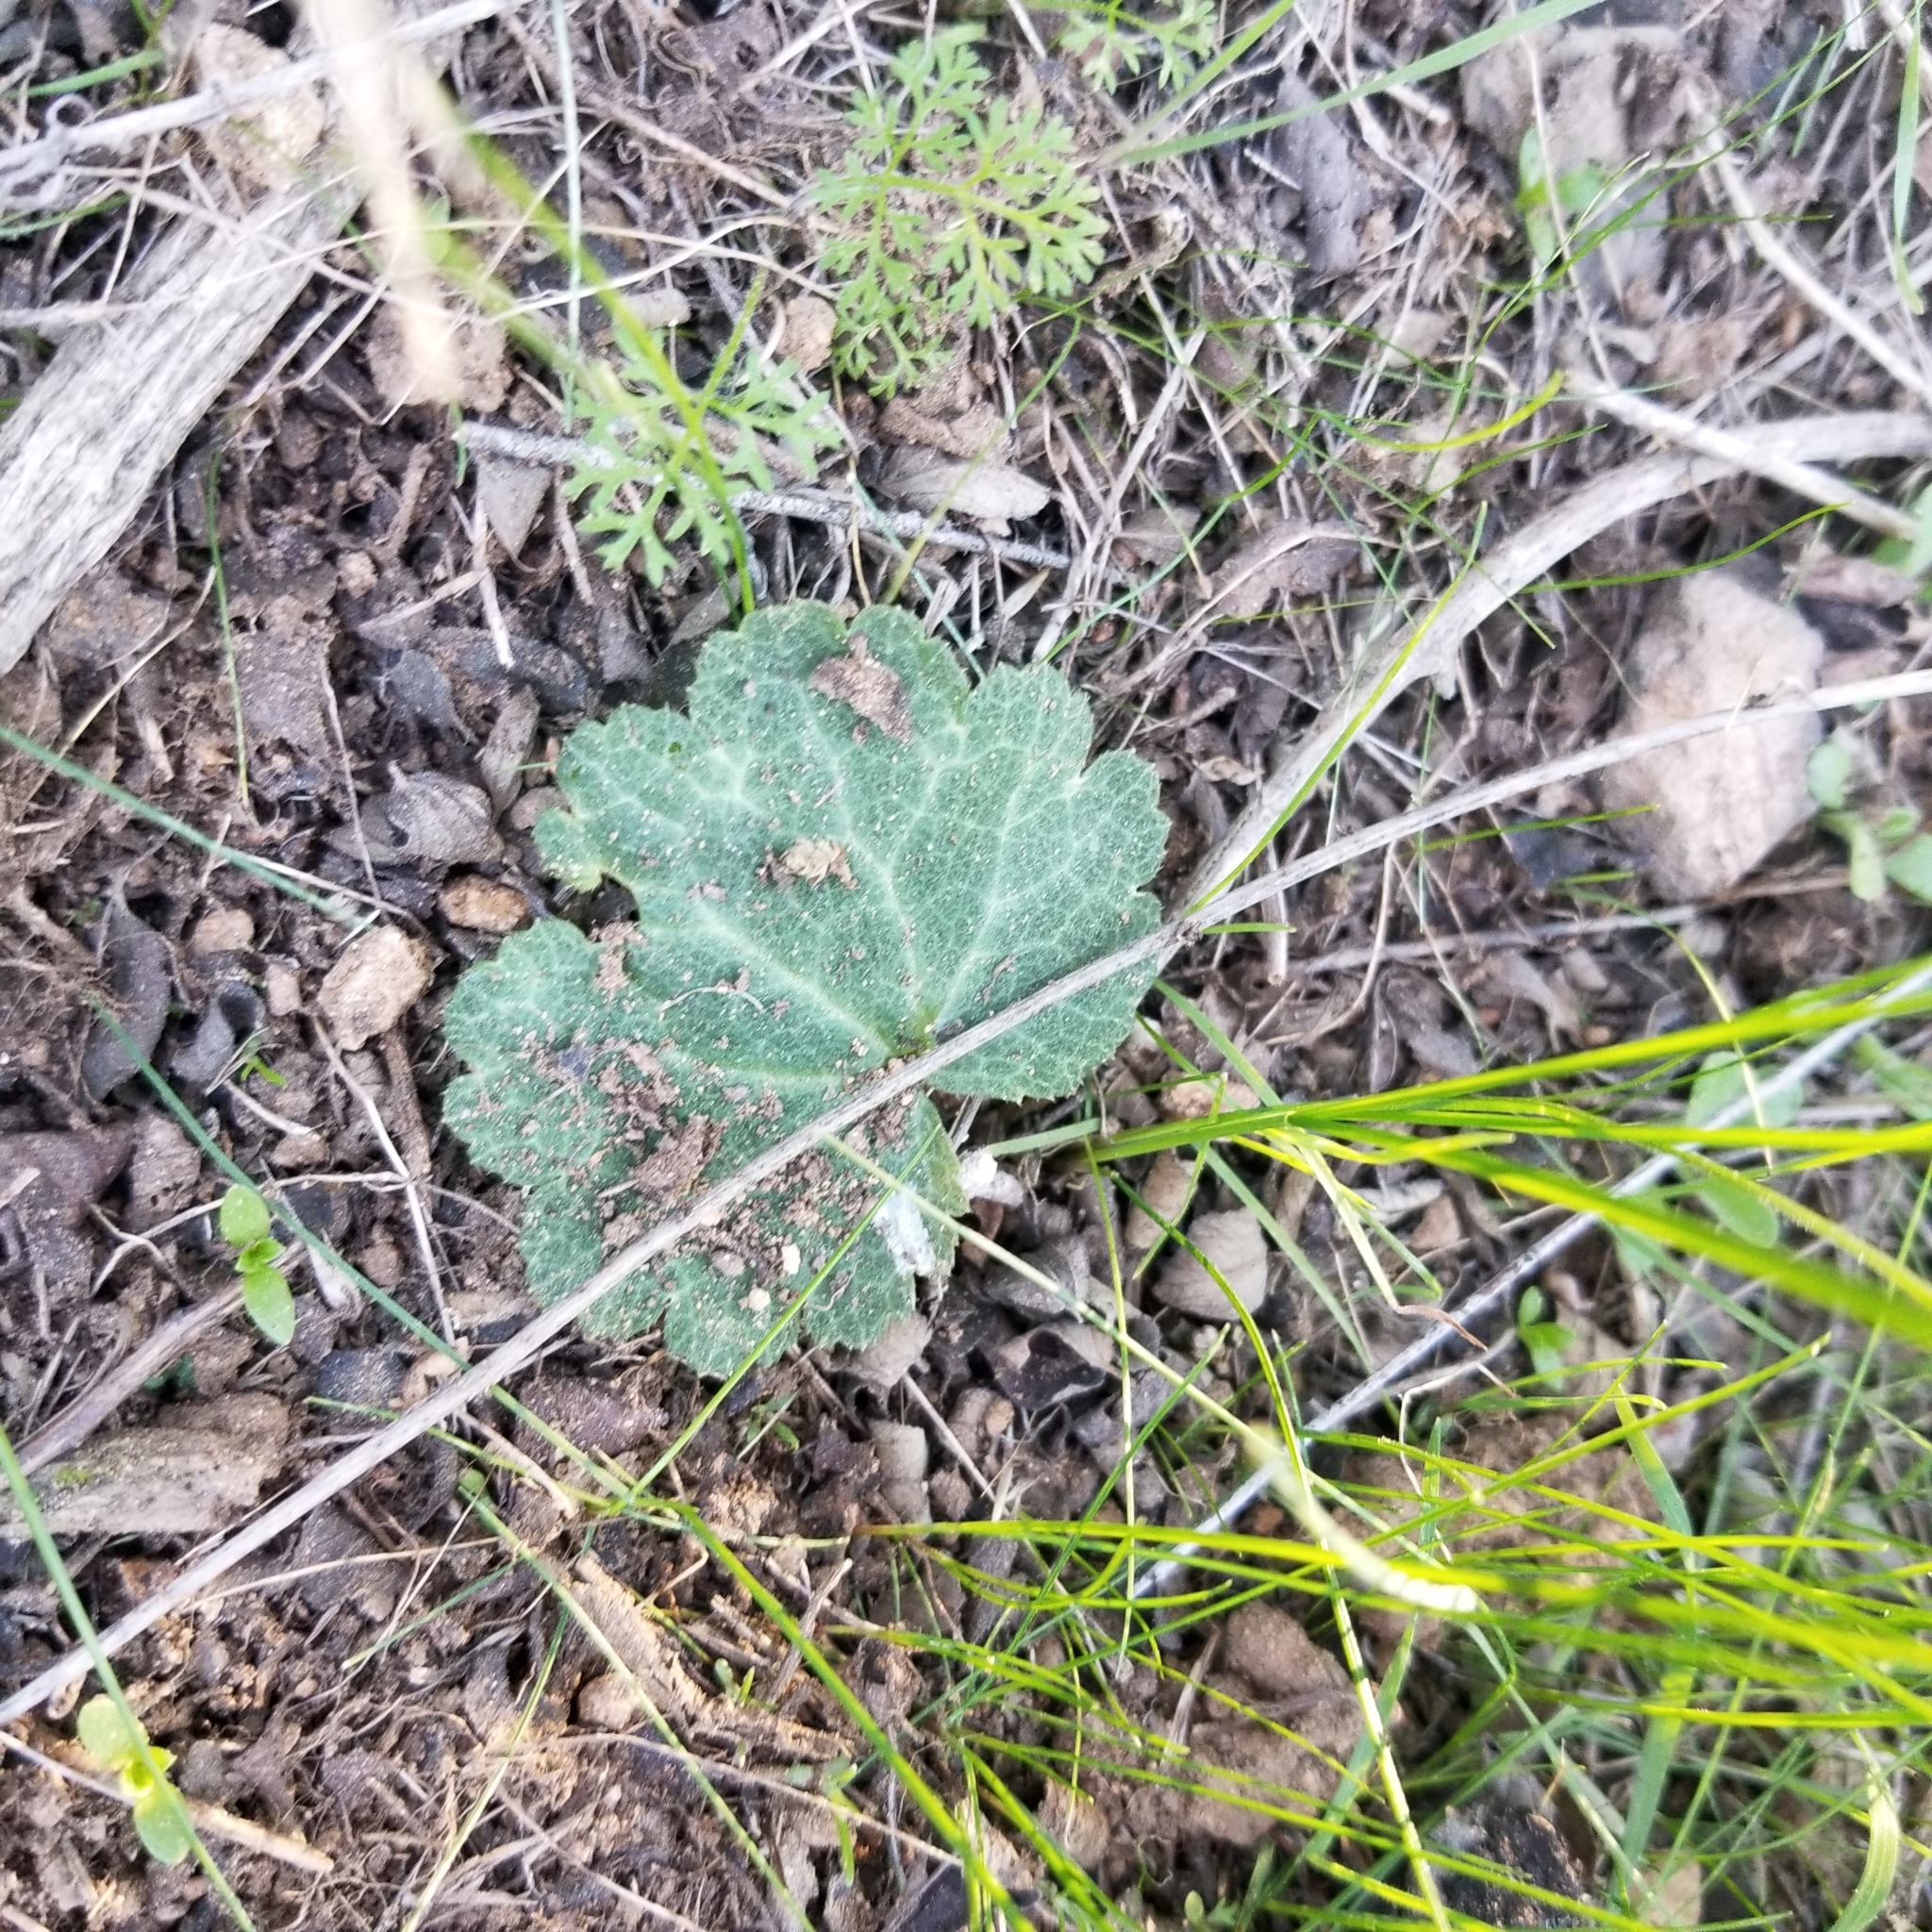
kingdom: Plantae
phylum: Tracheophyta
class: Magnoliopsida
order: Saxifragales
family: Saxifragaceae
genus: Jepsonia
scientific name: Jepsonia parryi
